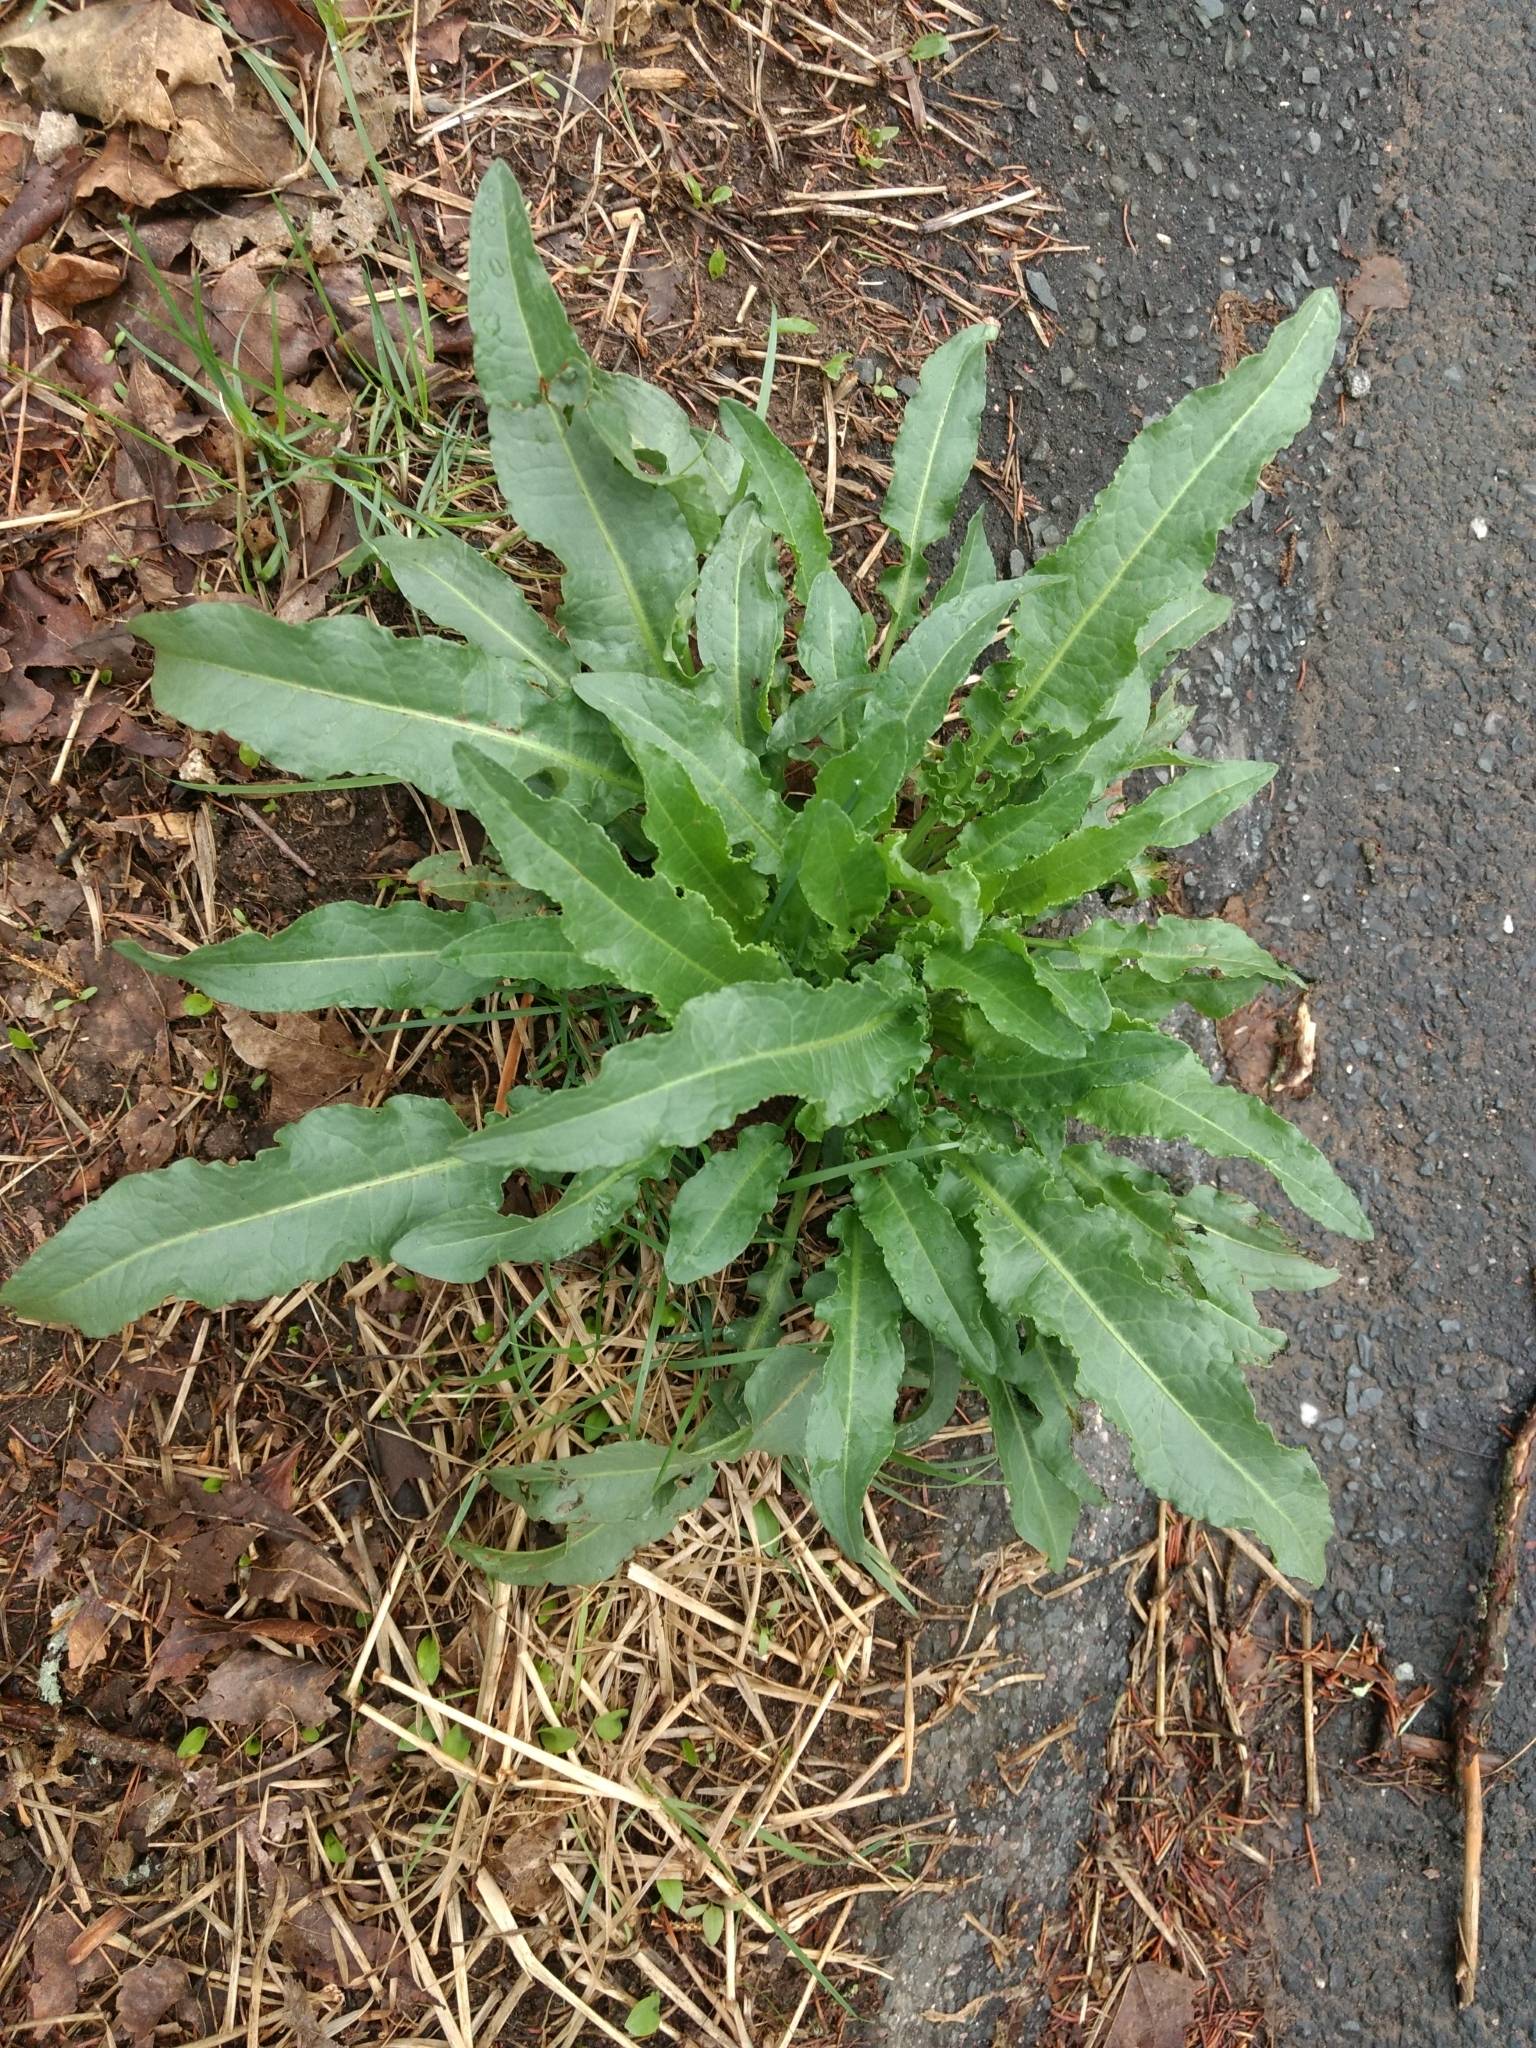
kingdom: Plantae
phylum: Tracheophyta
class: Magnoliopsida
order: Caryophyllales
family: Polygonaceae
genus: Rumex
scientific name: Rumex crispus
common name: Curled dock
